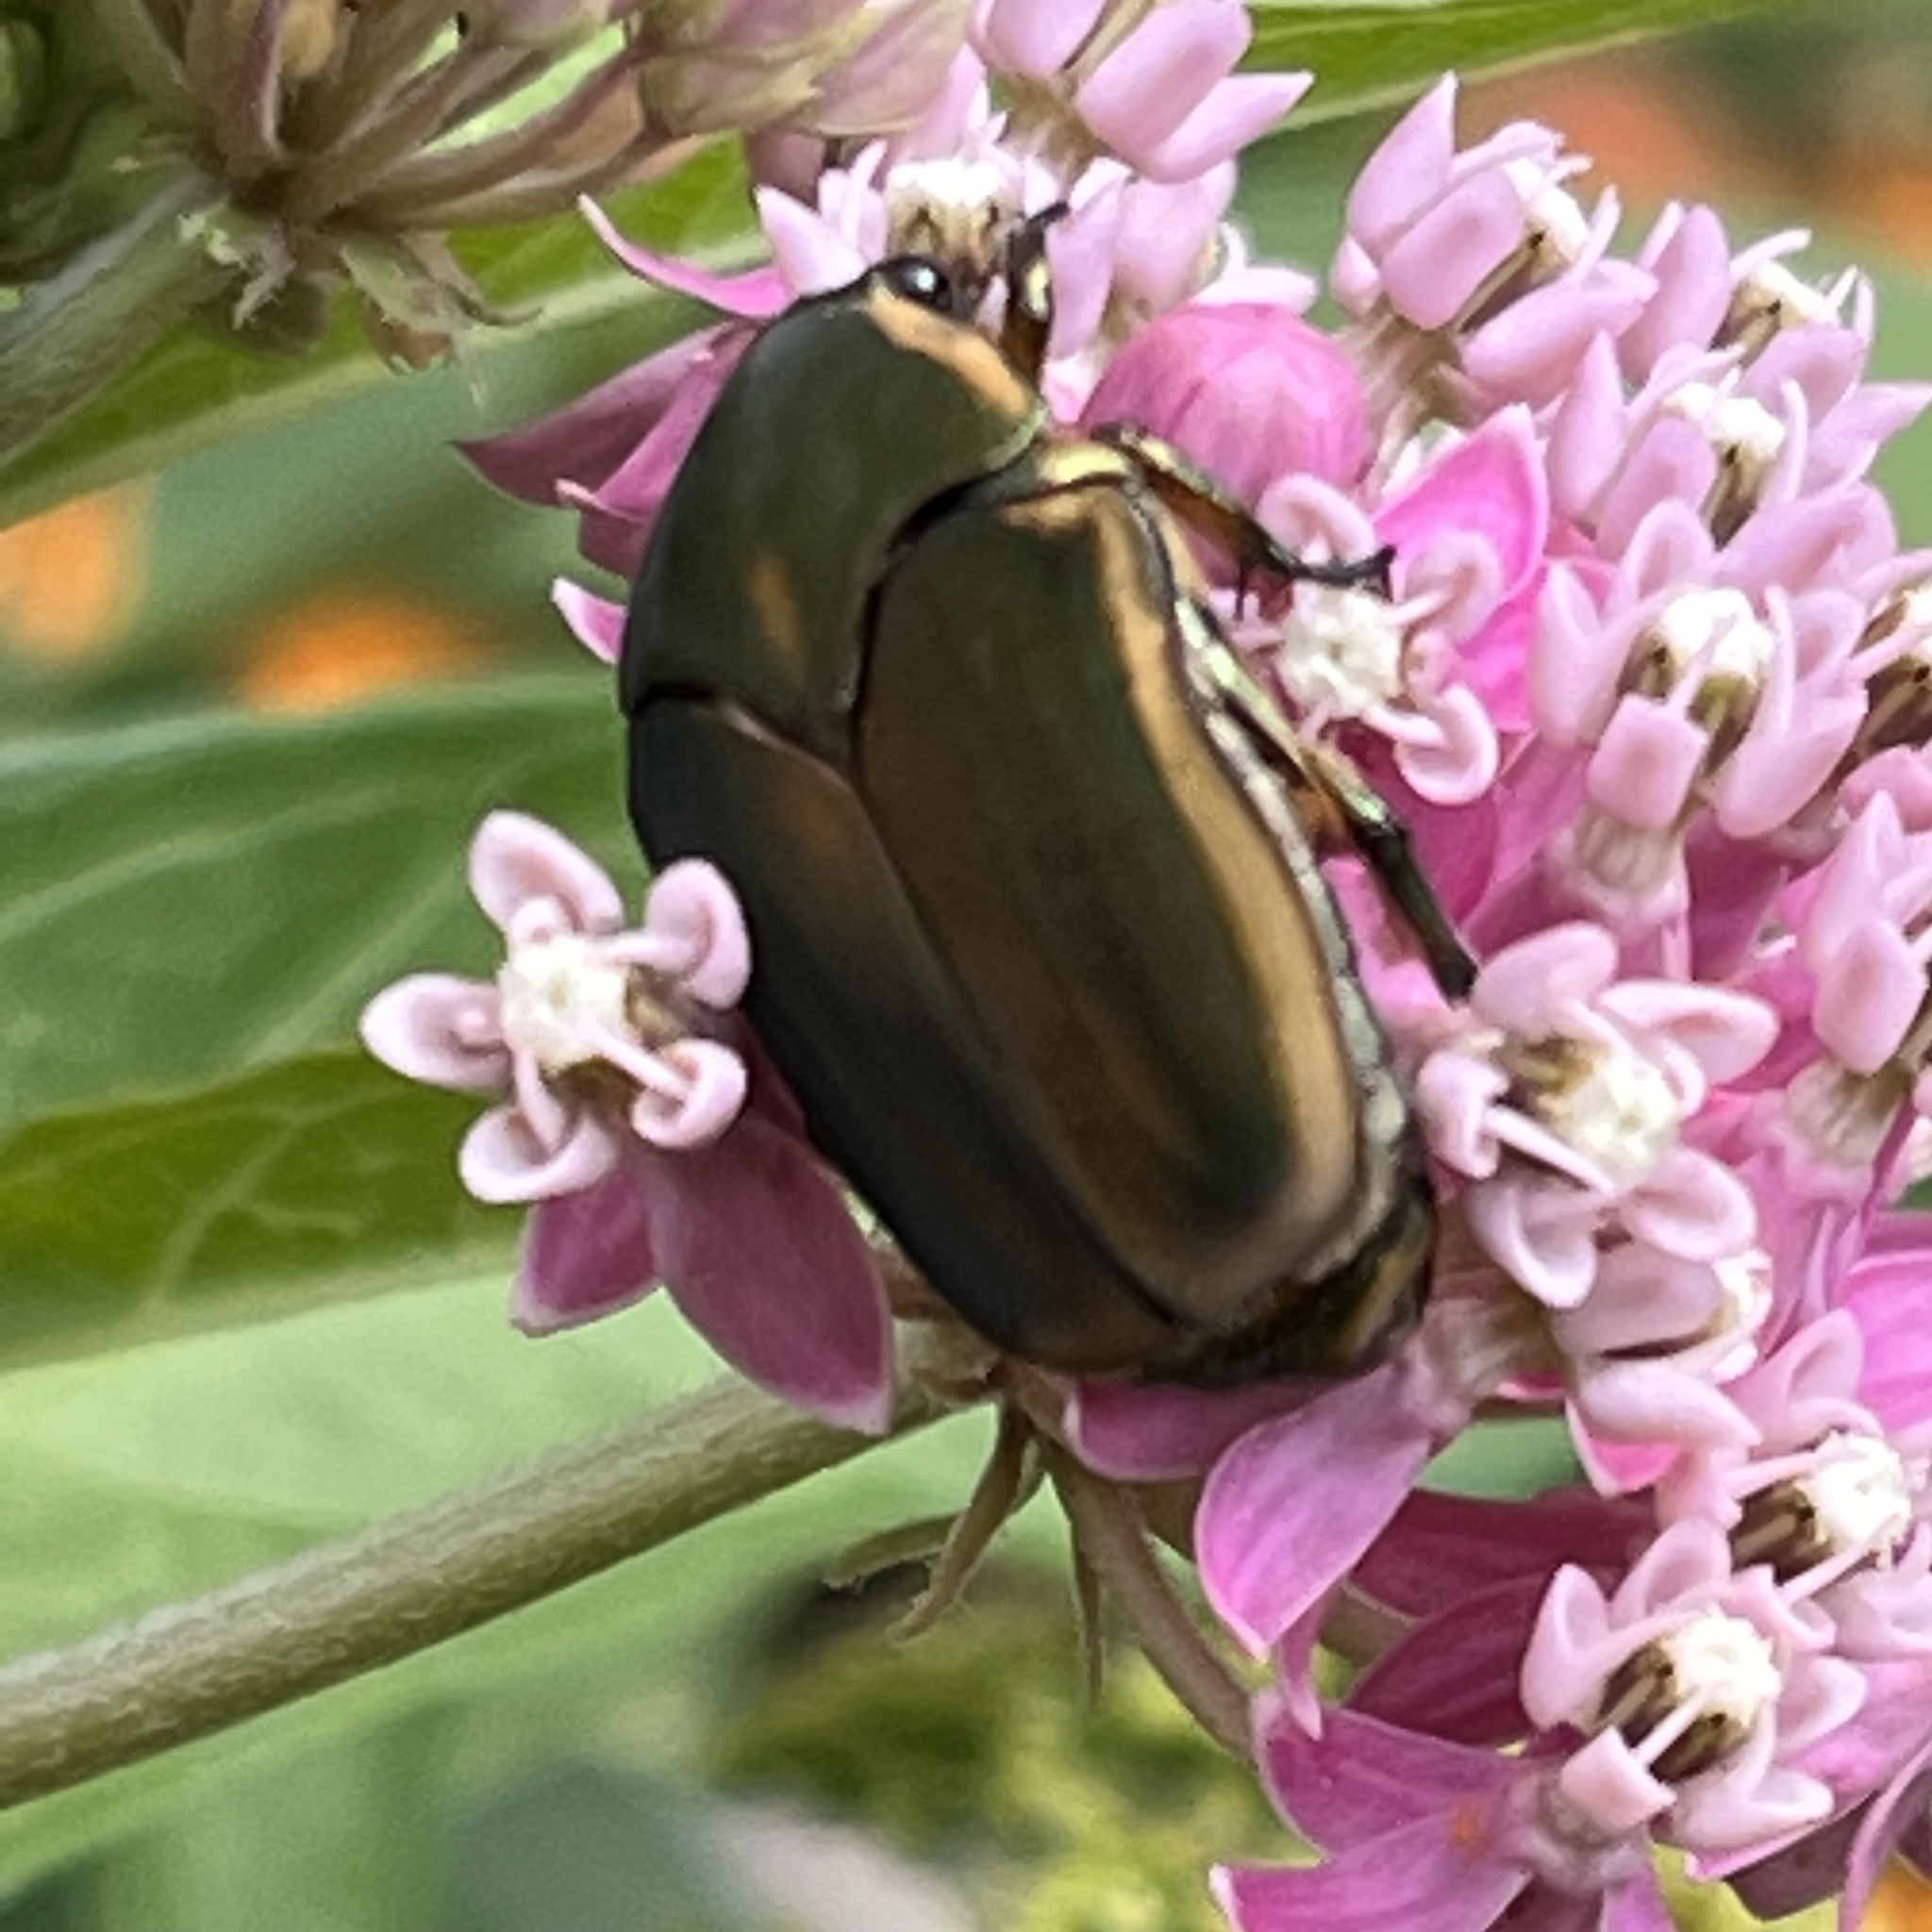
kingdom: Animalia
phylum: Arthropoda
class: Insecta
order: Coleoptera
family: Scarabaeidae
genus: Cotinis
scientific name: Cotinis nitida
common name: Common green june beetle
